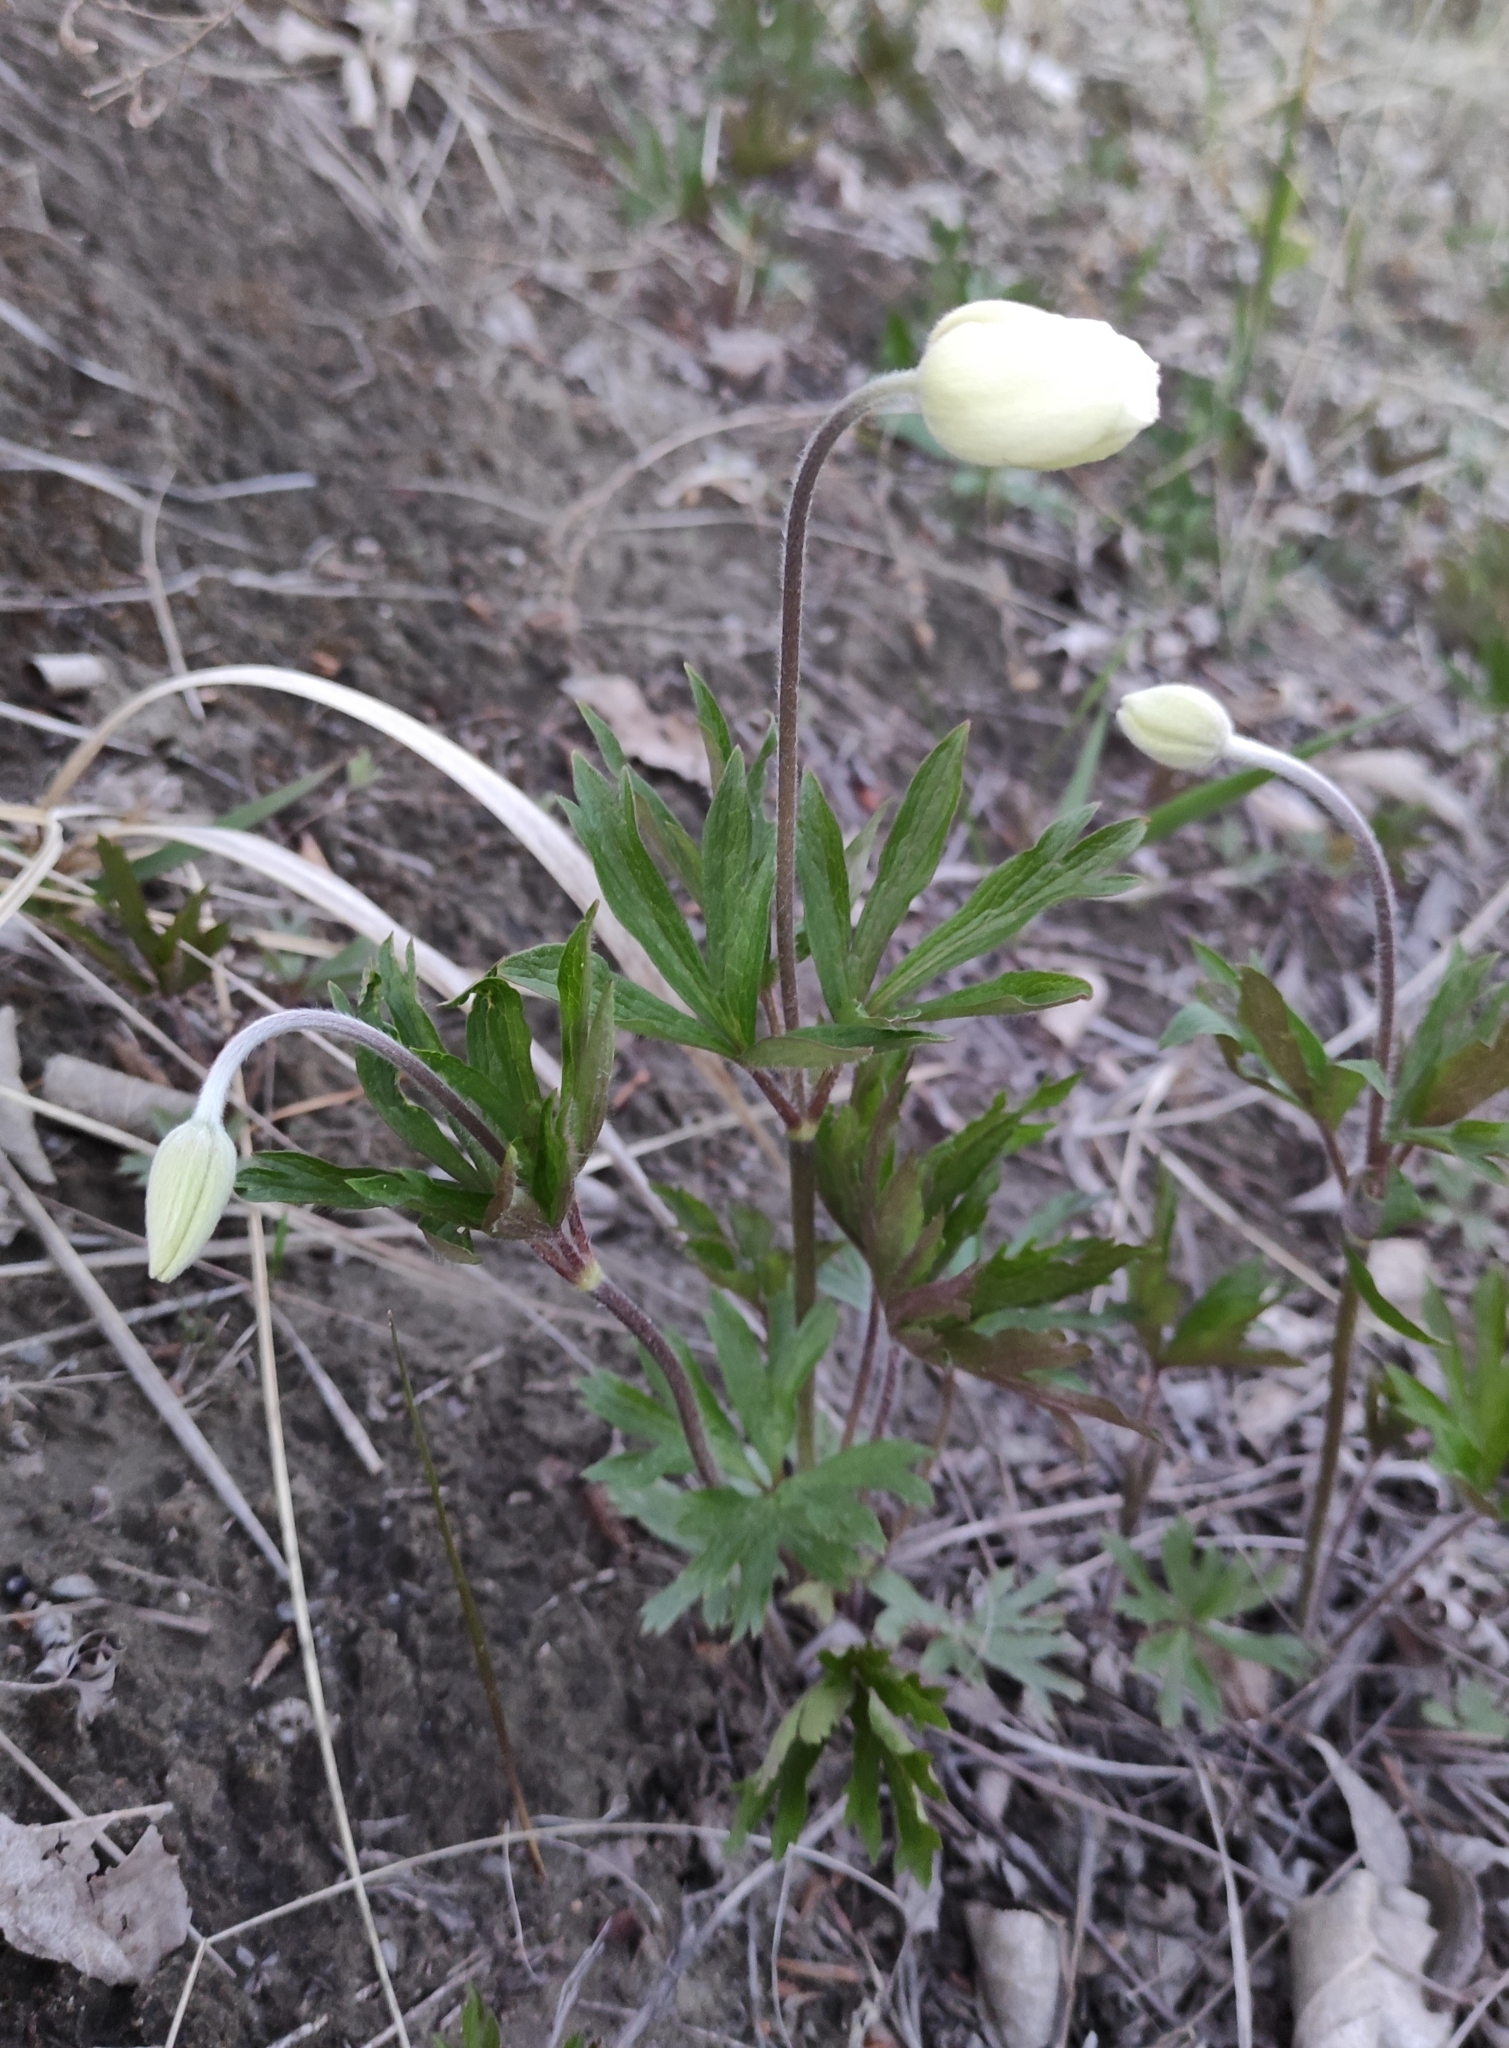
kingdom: Plantae
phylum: Tracheophyta
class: Magnoliopsida
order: Ranunculales
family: Ranunculaceae
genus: Anemone
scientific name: Anemone sylvestris
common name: Snowdrop anemone
